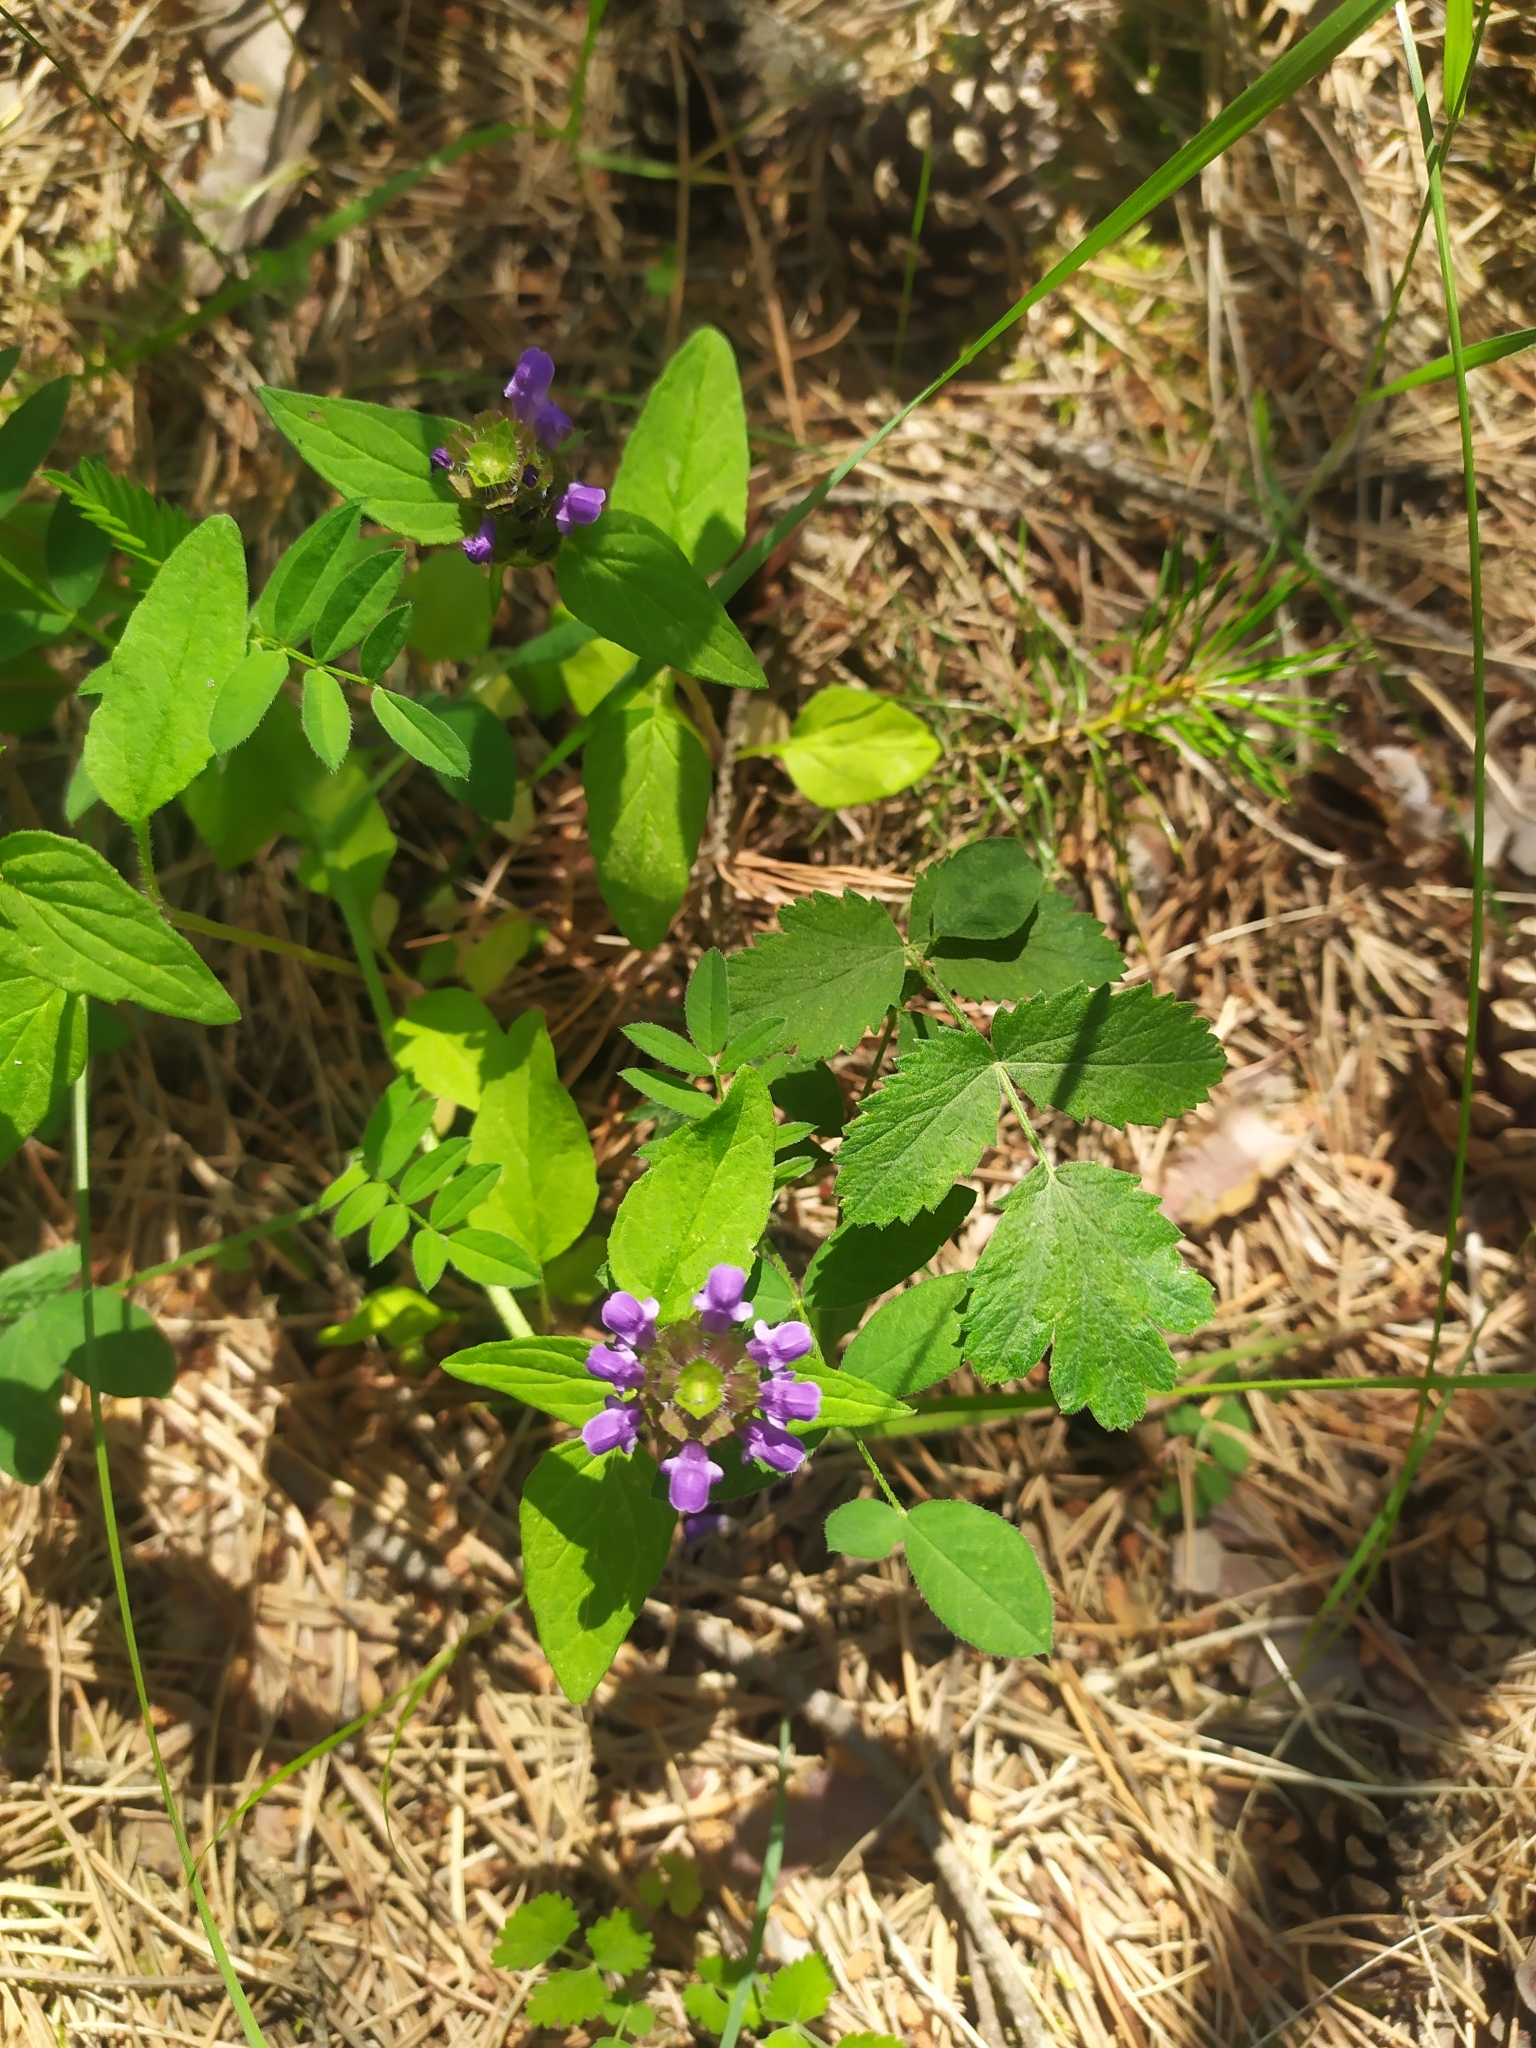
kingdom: Plantae
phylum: Tracheophyta
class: Magnoliopsida
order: Lamiales
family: Lamiaceae
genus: Prunella
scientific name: Prunella vulgaris
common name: Heal-all
